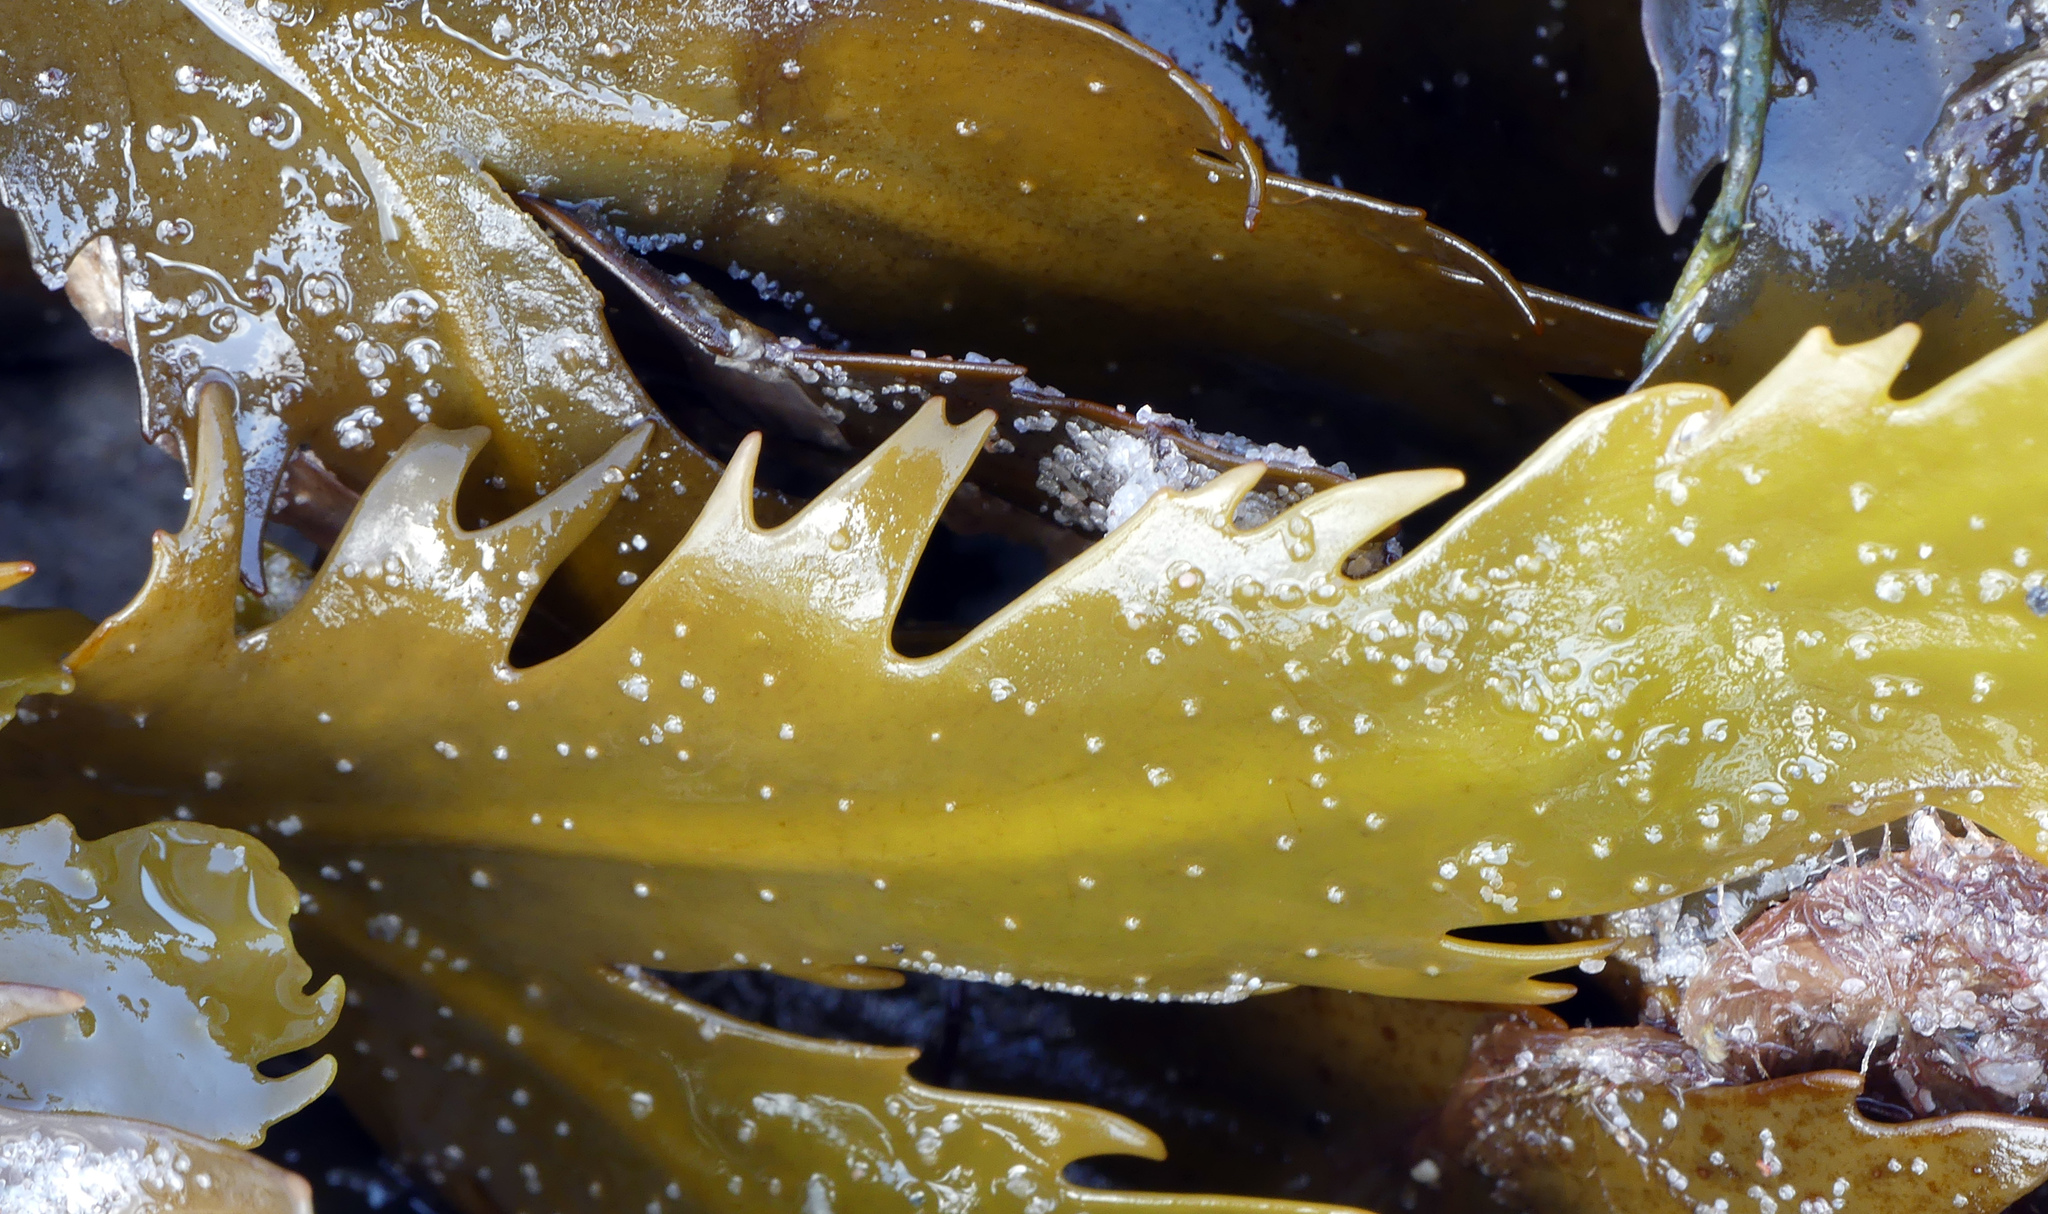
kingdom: Chromista
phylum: Ochrophyta
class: Phaeophyceae
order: Fucales
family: Fucaceae
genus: Fucus
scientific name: Fucus serratus
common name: Toothed wrack
